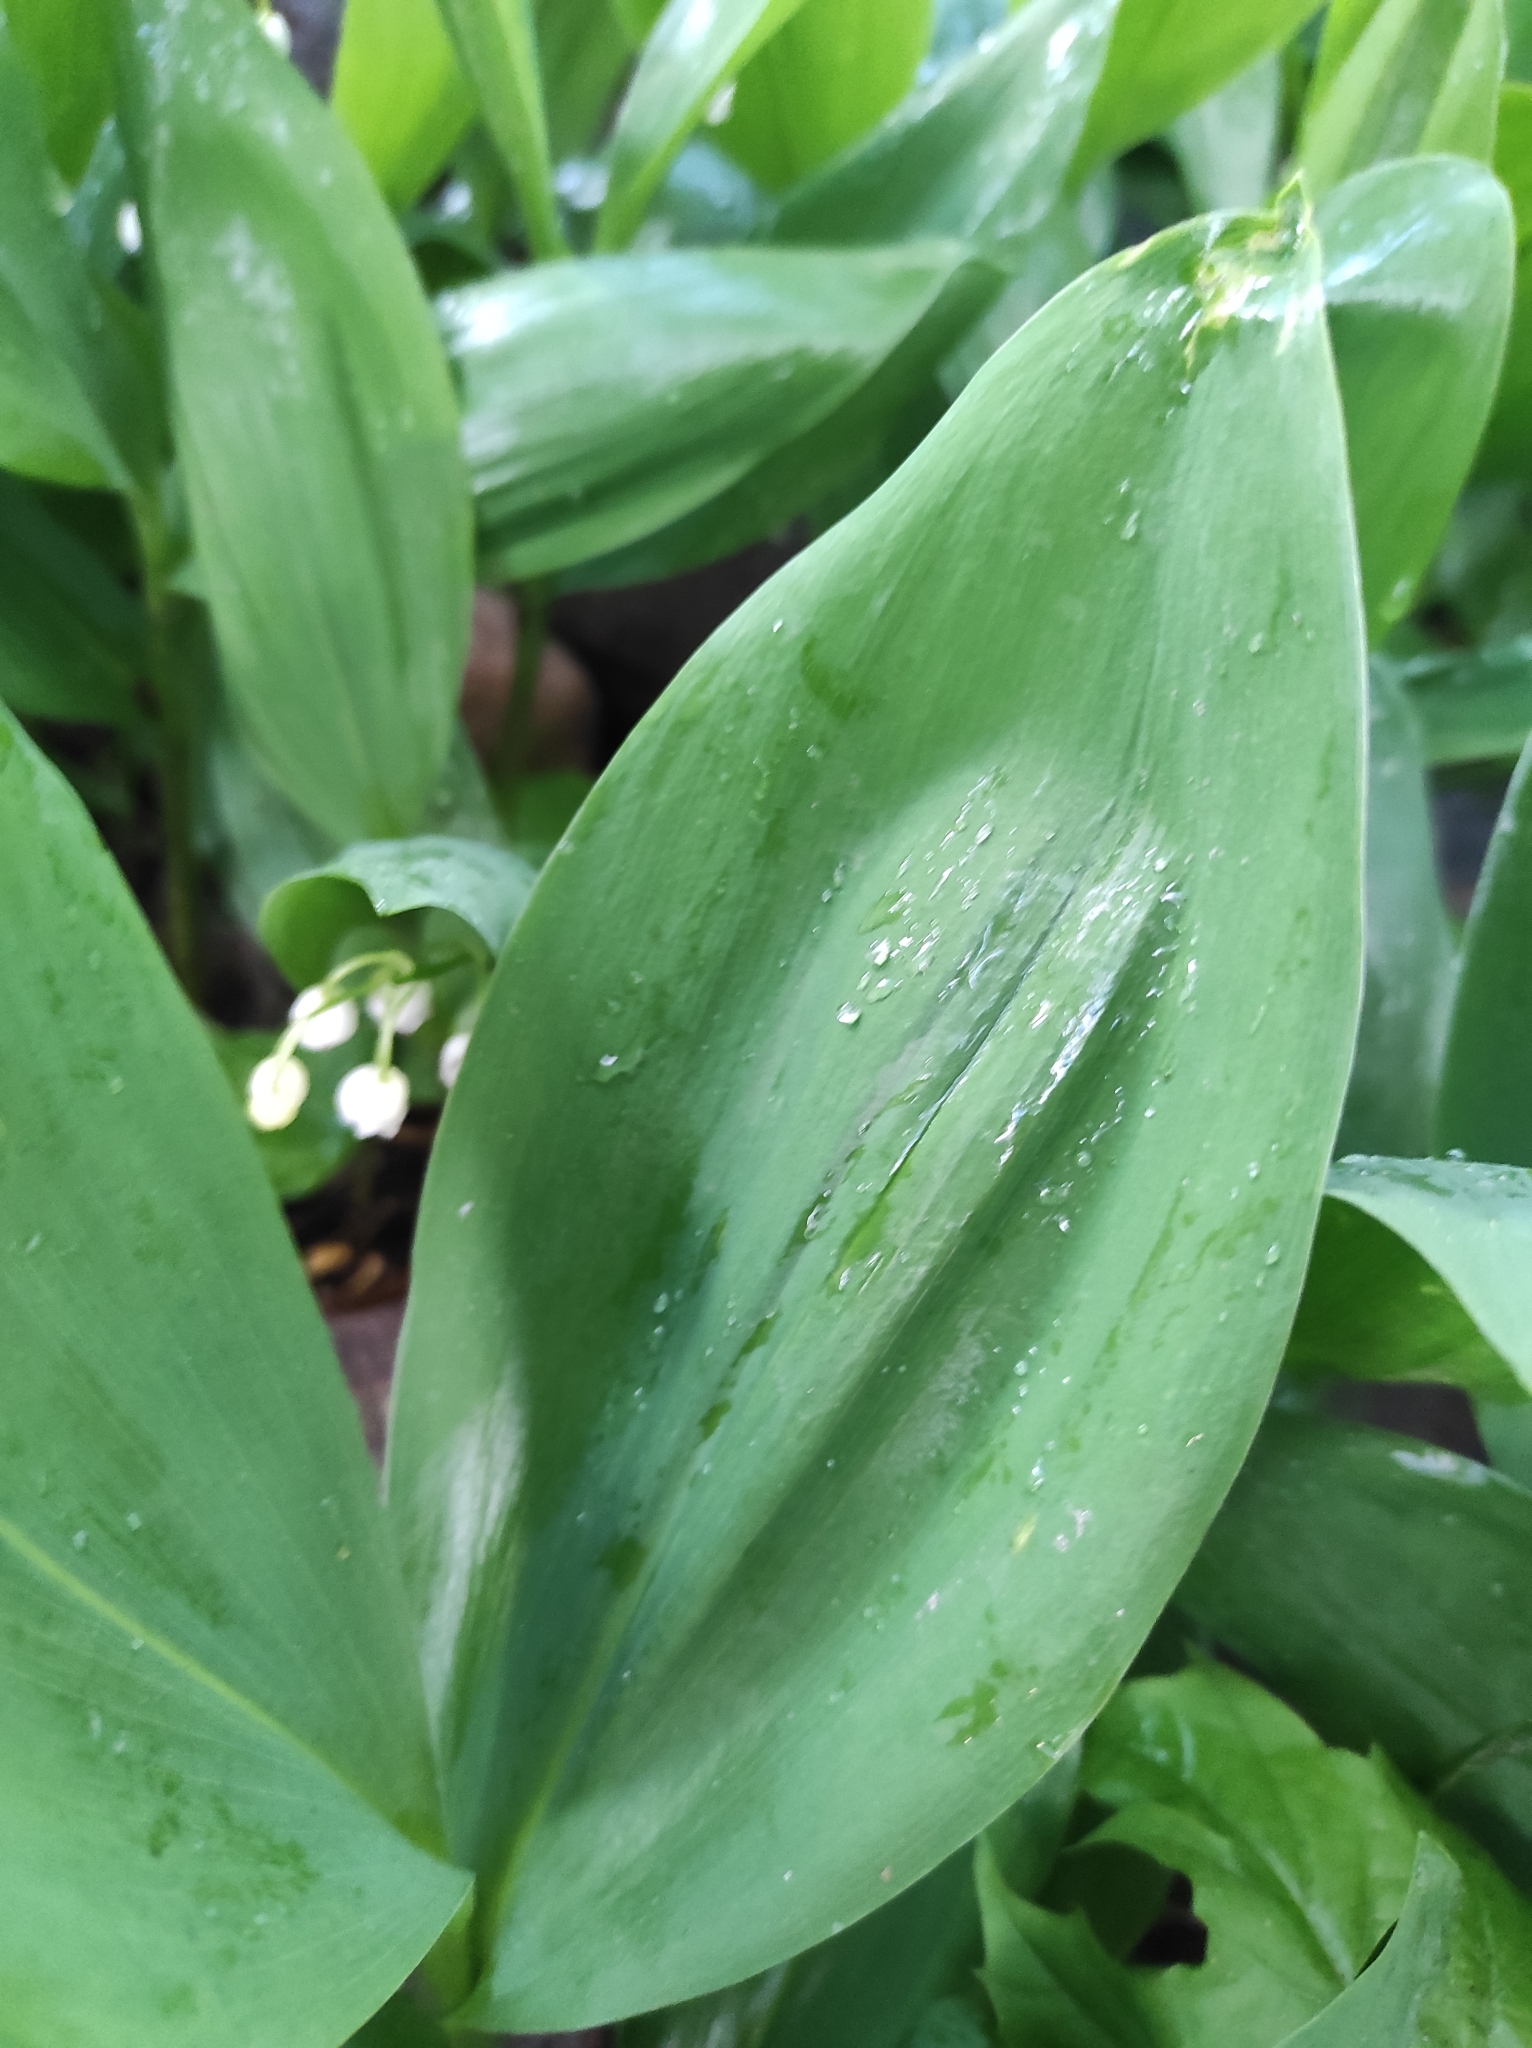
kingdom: Plantae
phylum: Tracheophyta
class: Liliopsida
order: Asparagales
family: Asparagaceae
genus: Convallaria
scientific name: Convallaria majalis
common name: Lily-of-the-valley
